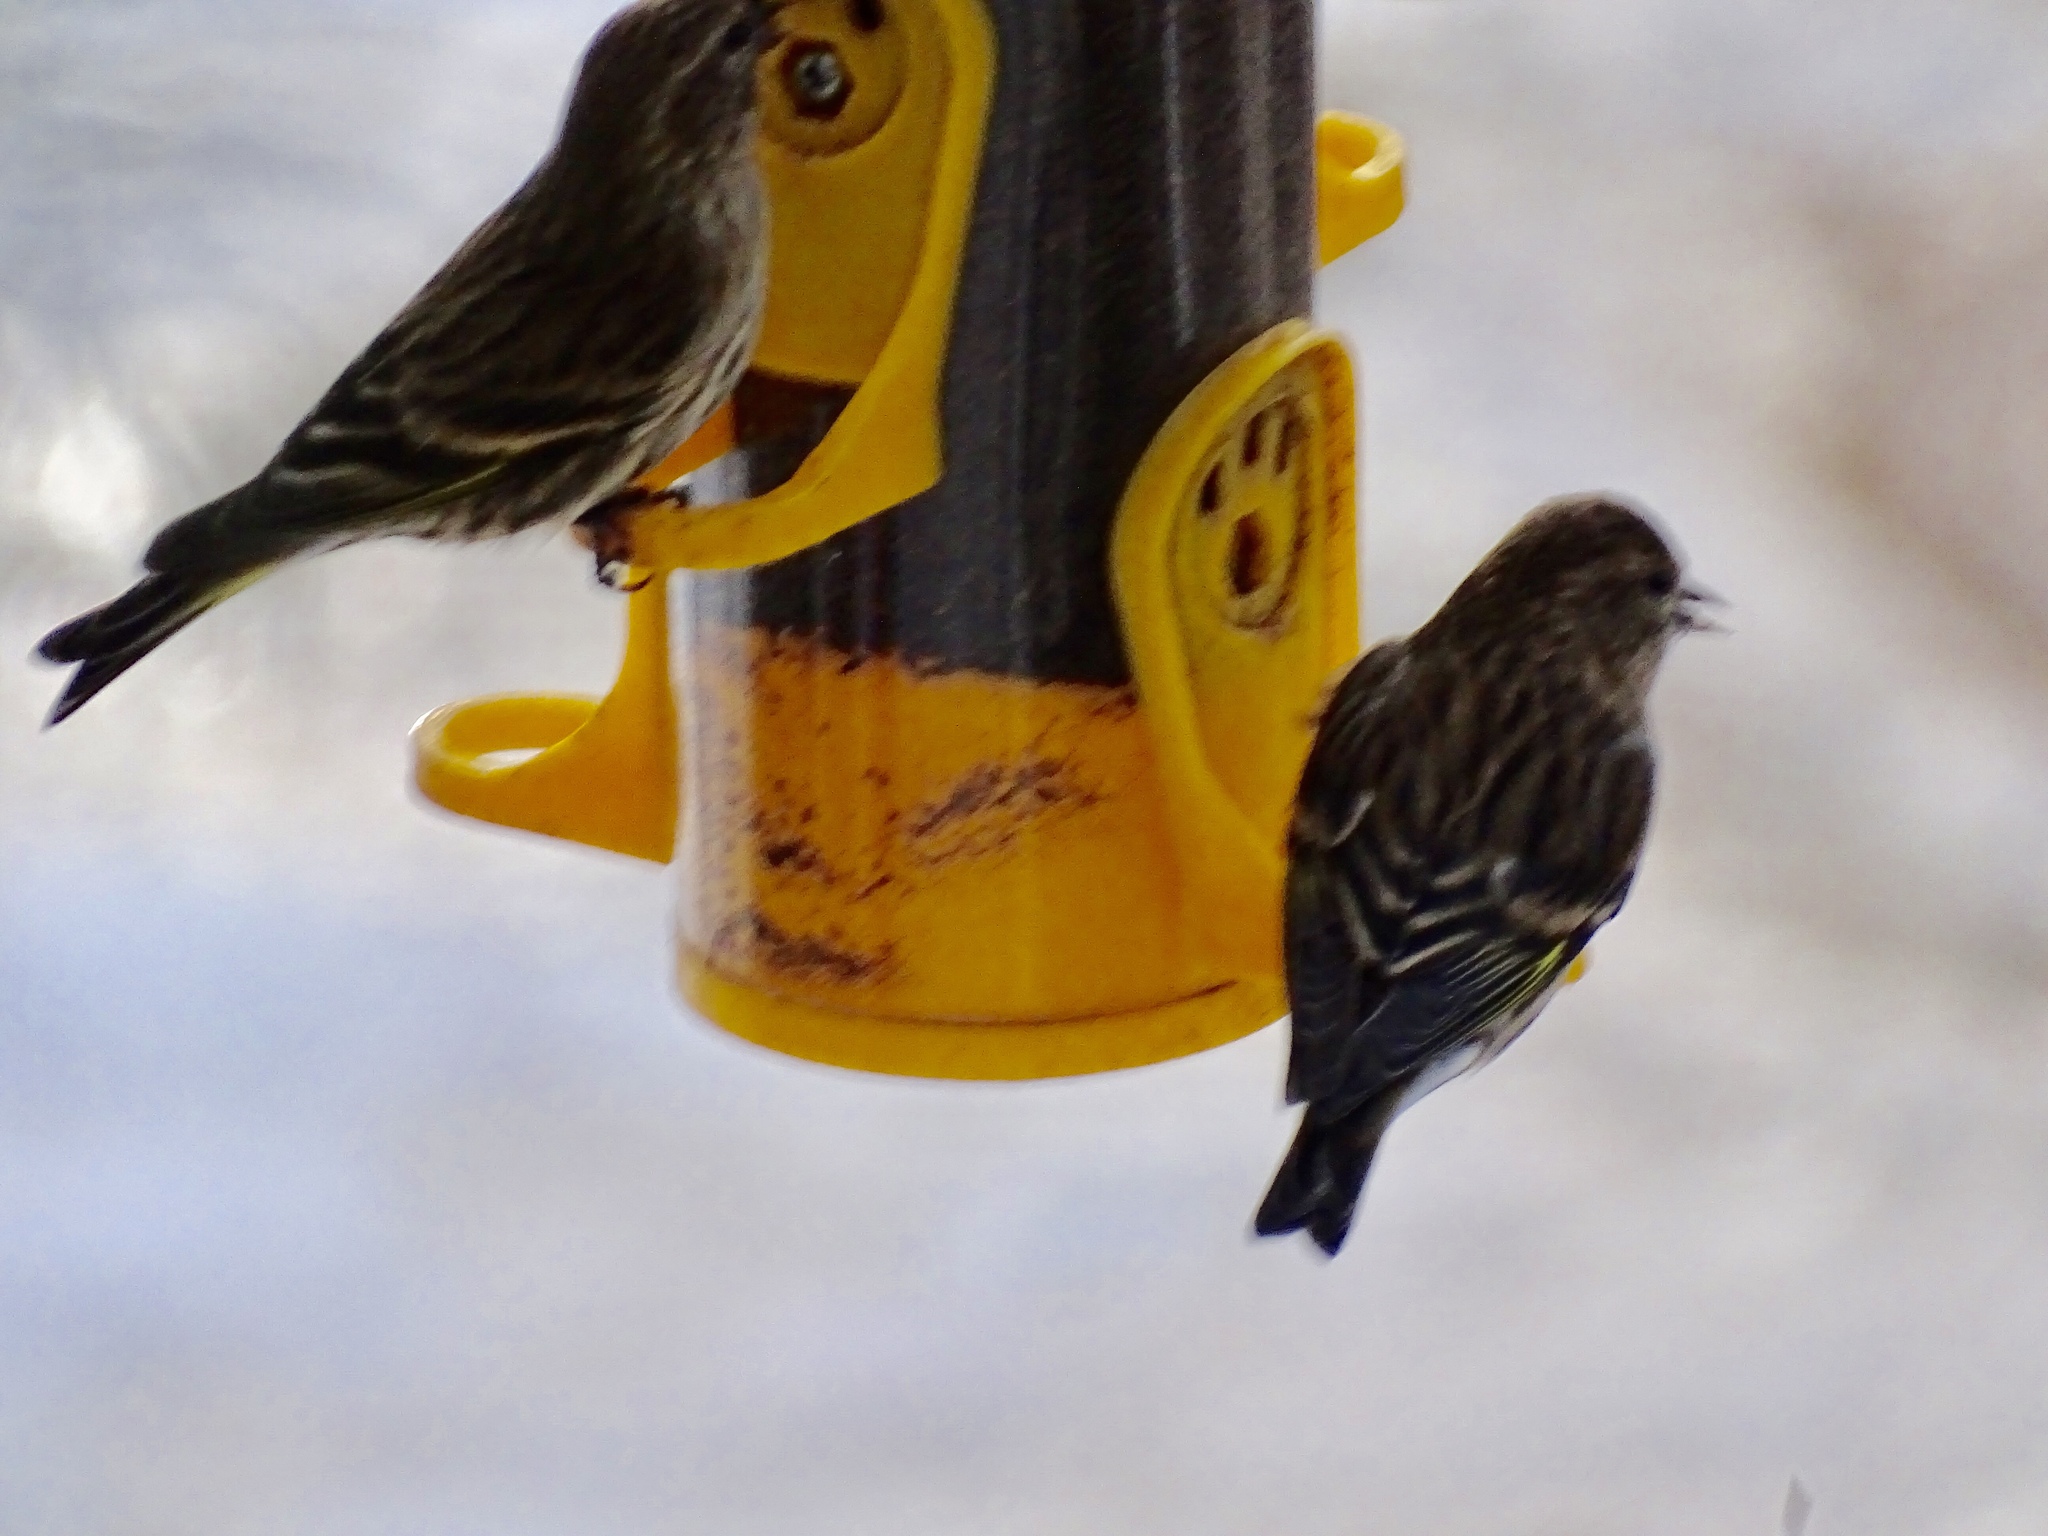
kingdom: Animalia
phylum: Chordata
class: Aves
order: Passeriformes
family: Fringillidae
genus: Spinus
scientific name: Spinus pinus
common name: Pine siskin
